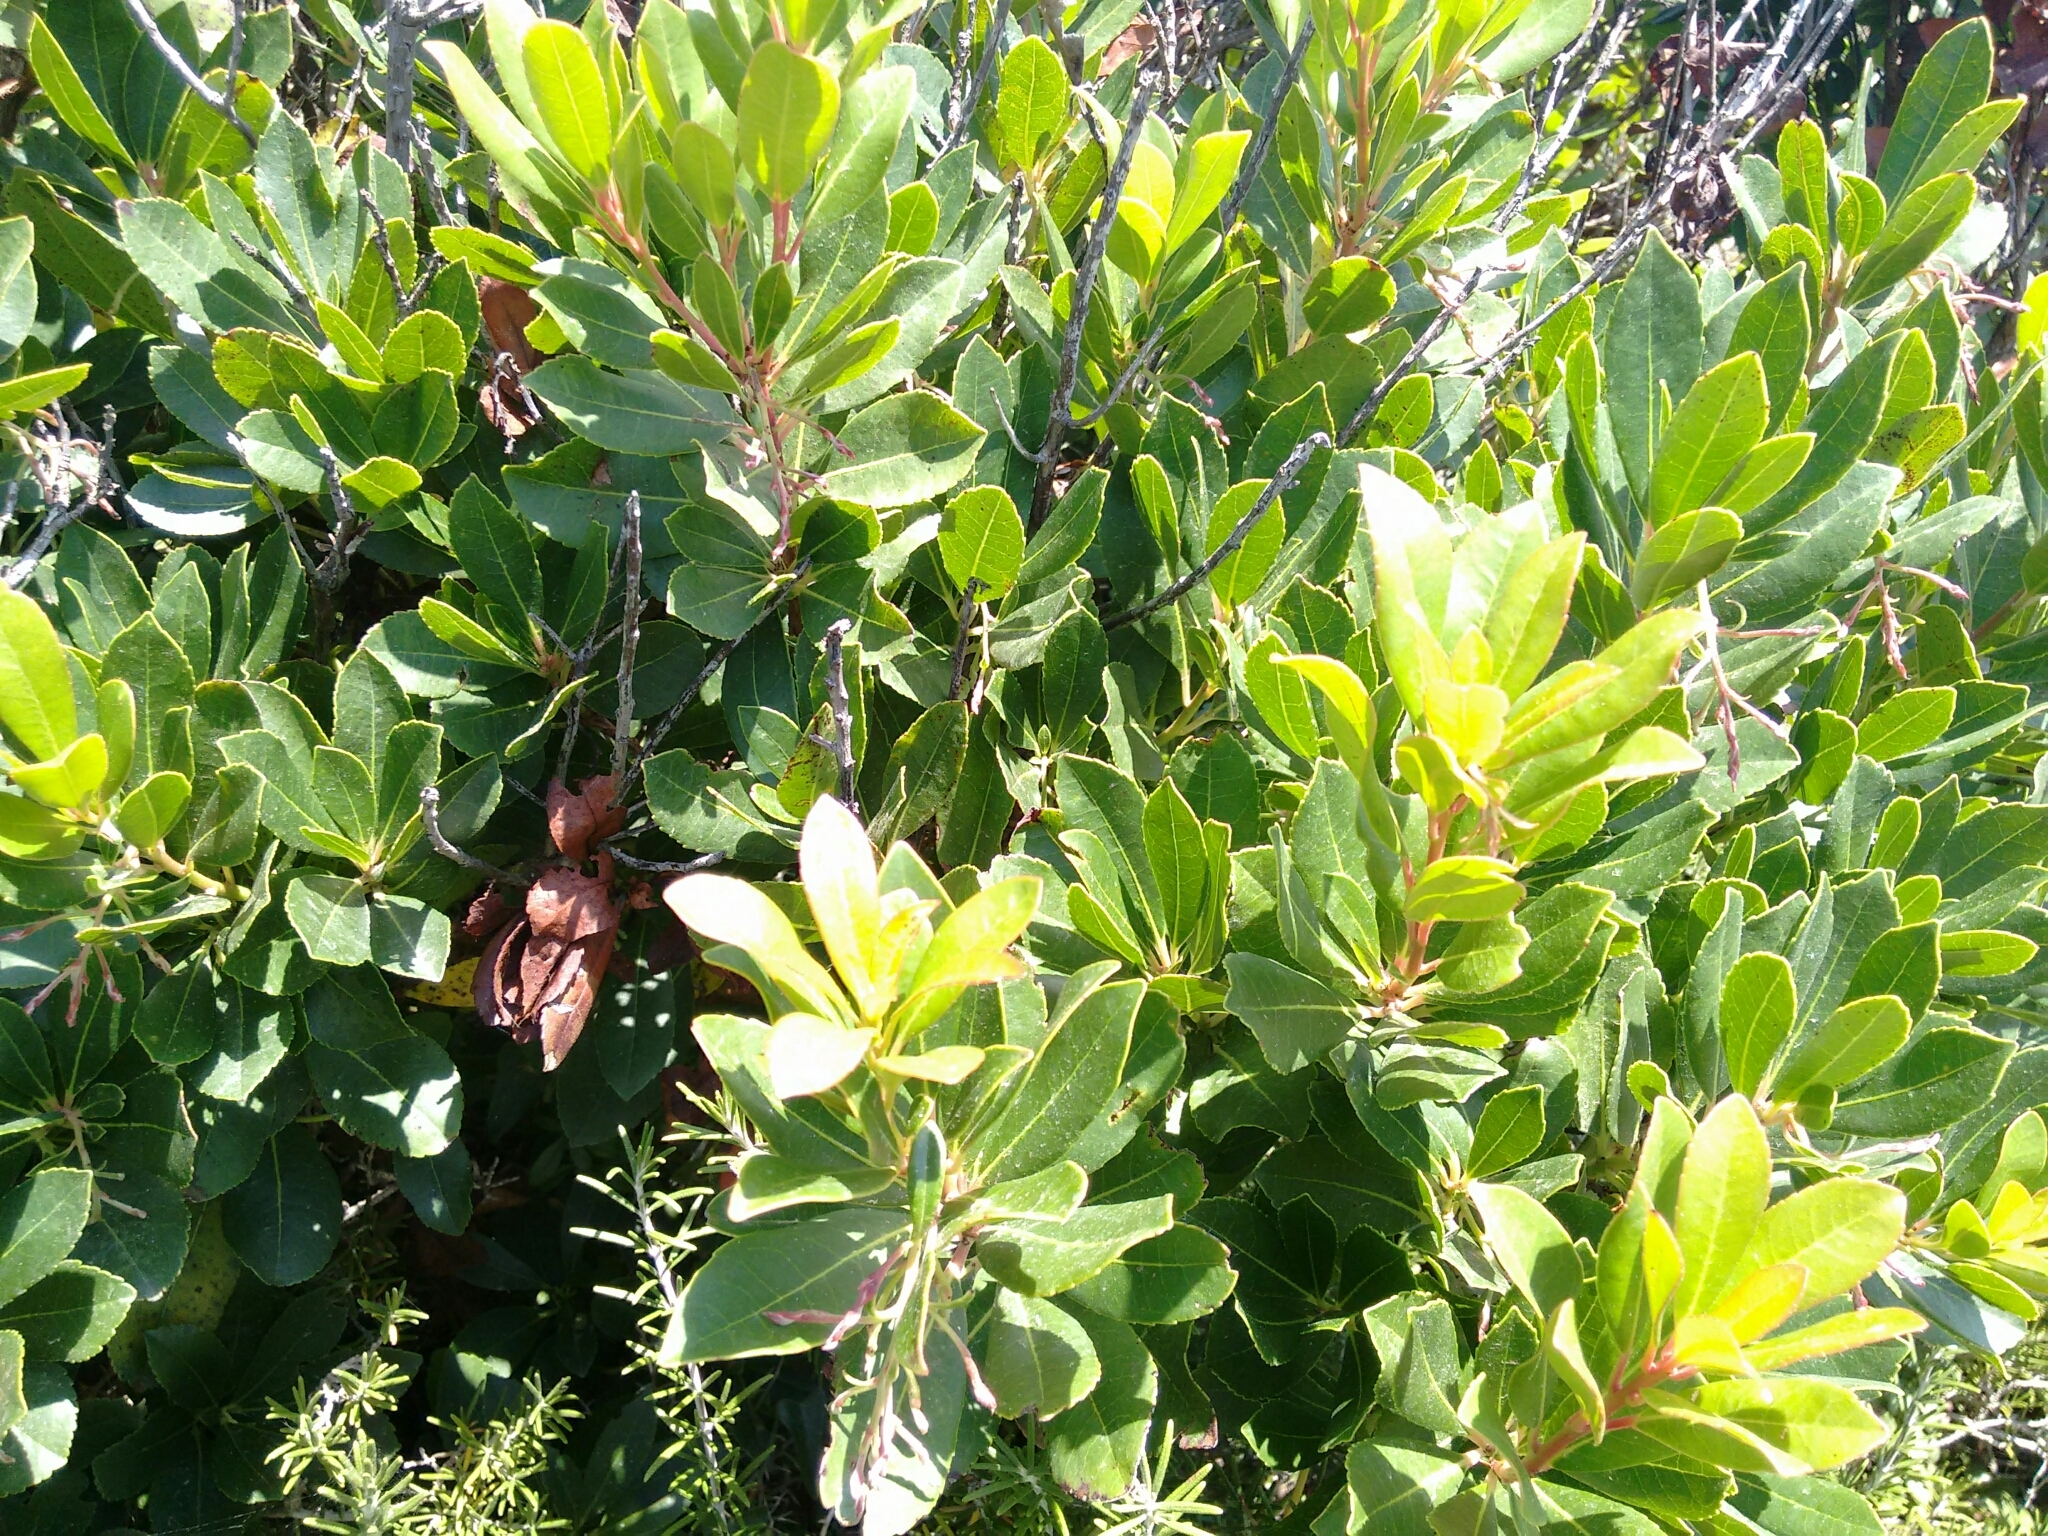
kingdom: Plantae
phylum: Tracheophyta
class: Magnoliopsida
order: Ericales
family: Ericaceae
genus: Arbutus
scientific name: Arbutus unedo
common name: Strawberry-tree
